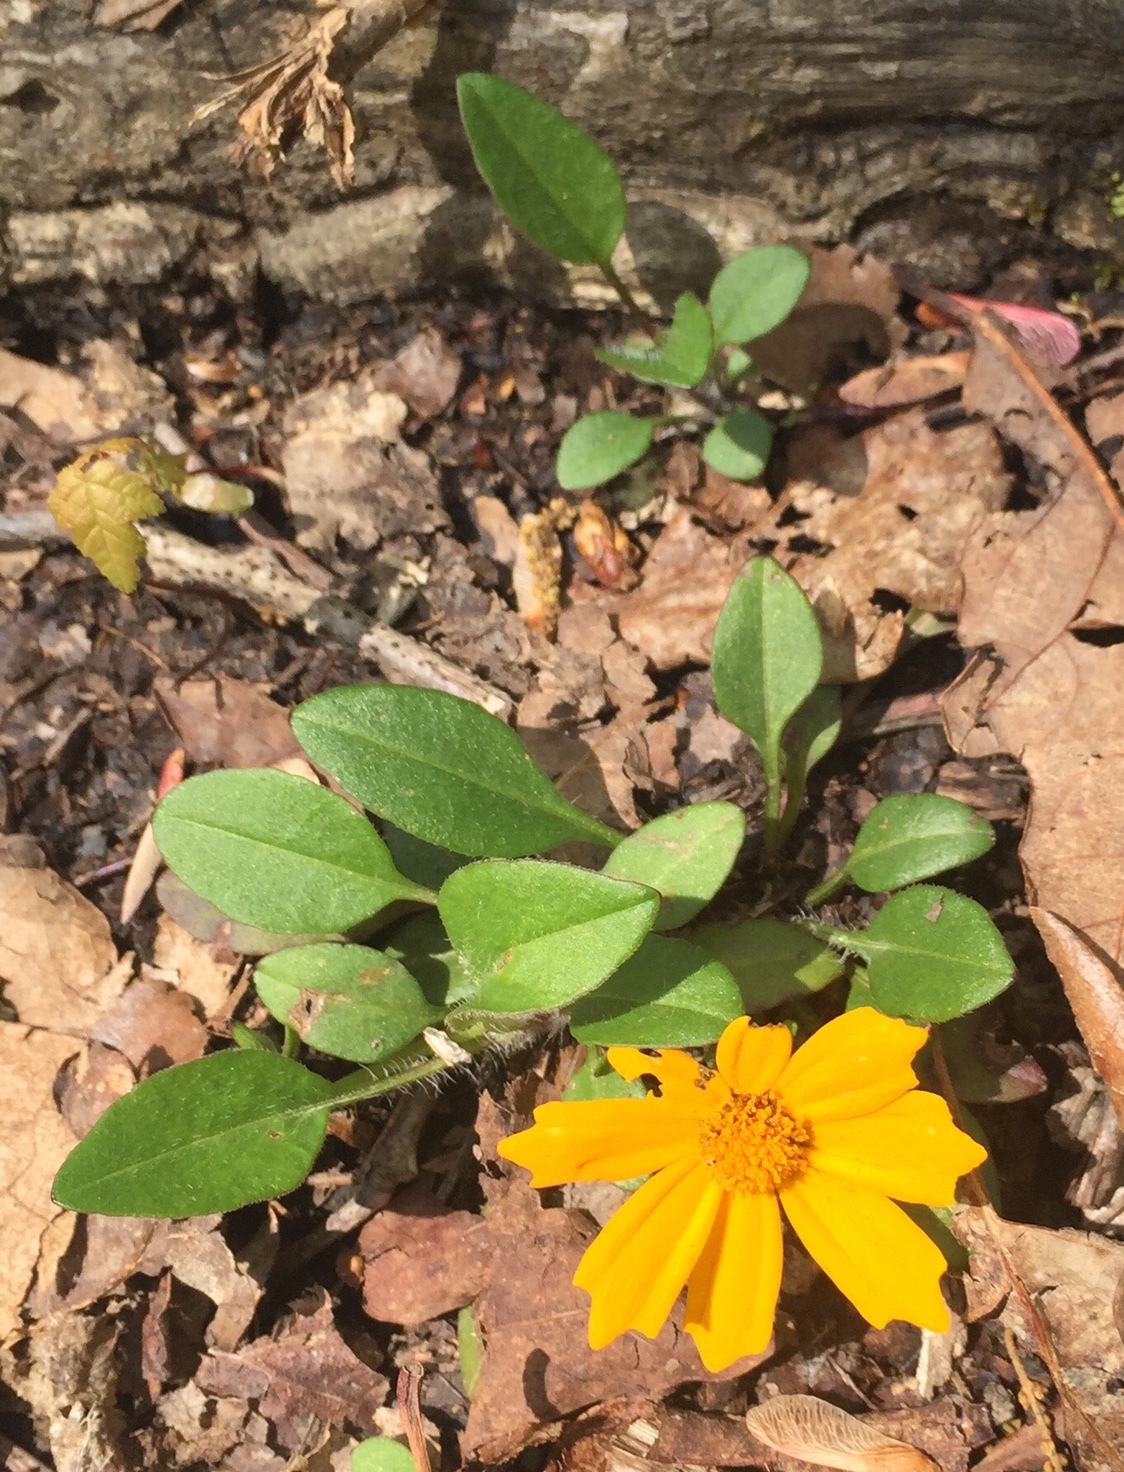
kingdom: Plantae
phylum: Tracheophyta
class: Magnoliopsida
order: Asterales
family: Asteraceae
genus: Coreopsis
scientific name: Coreopsis auriculata
